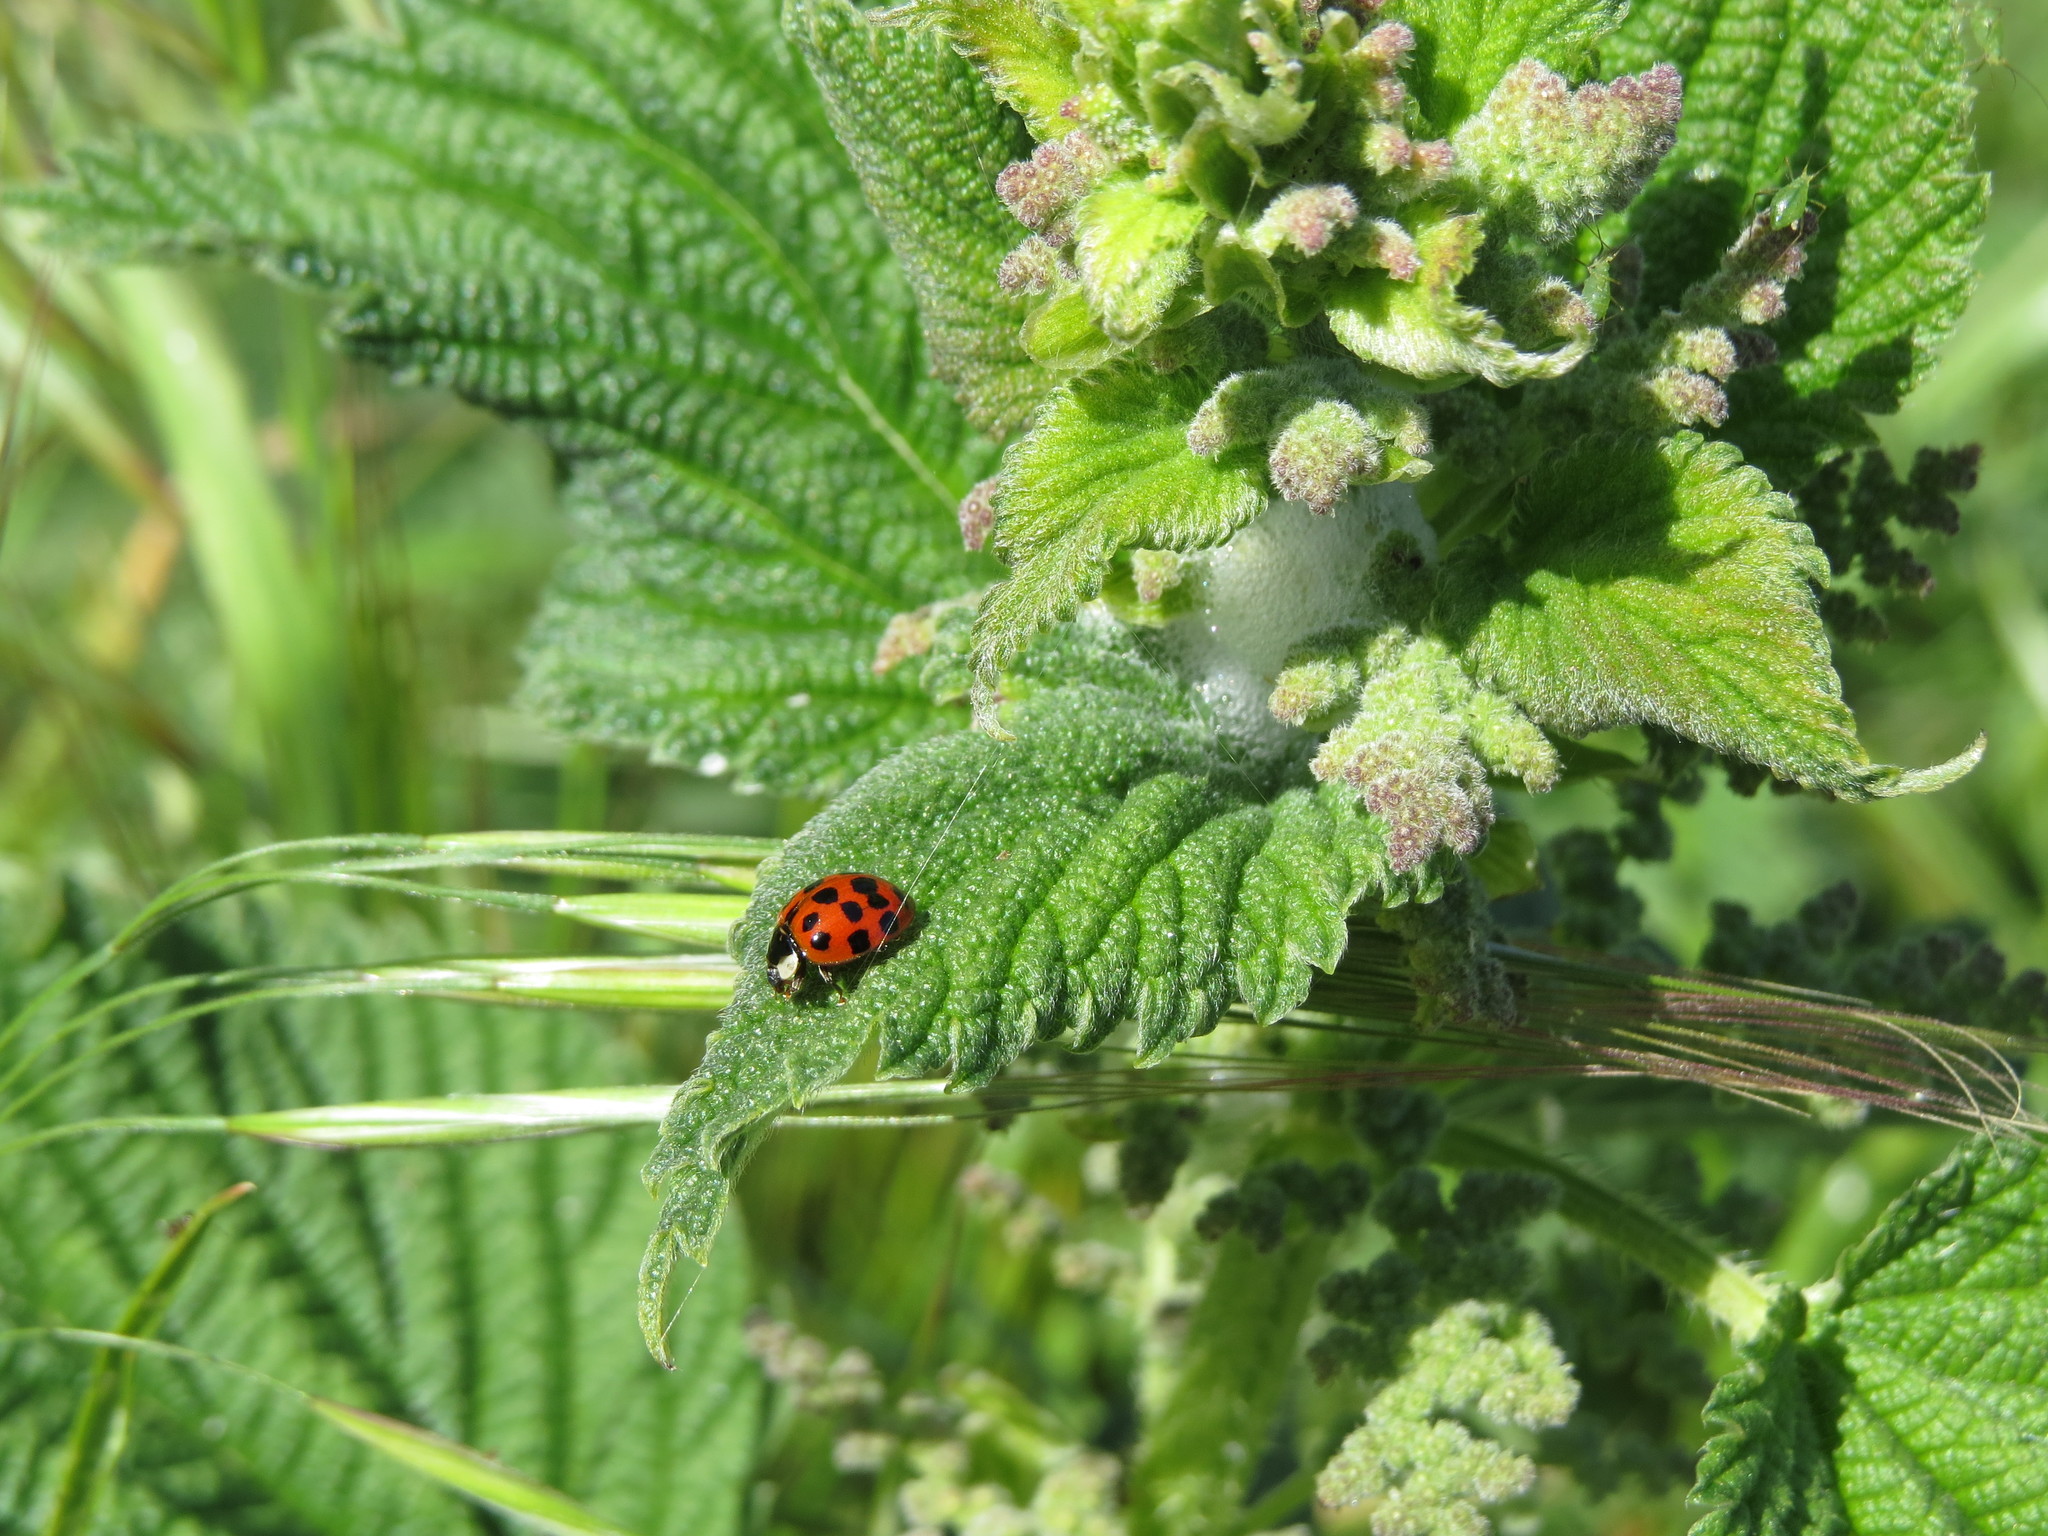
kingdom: Animalia
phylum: Arthropoda
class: Insecta
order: Coleoptera
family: Coccinellidae
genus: Harmonia
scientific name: Harmonia axyridis
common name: Harlequin ladybird
